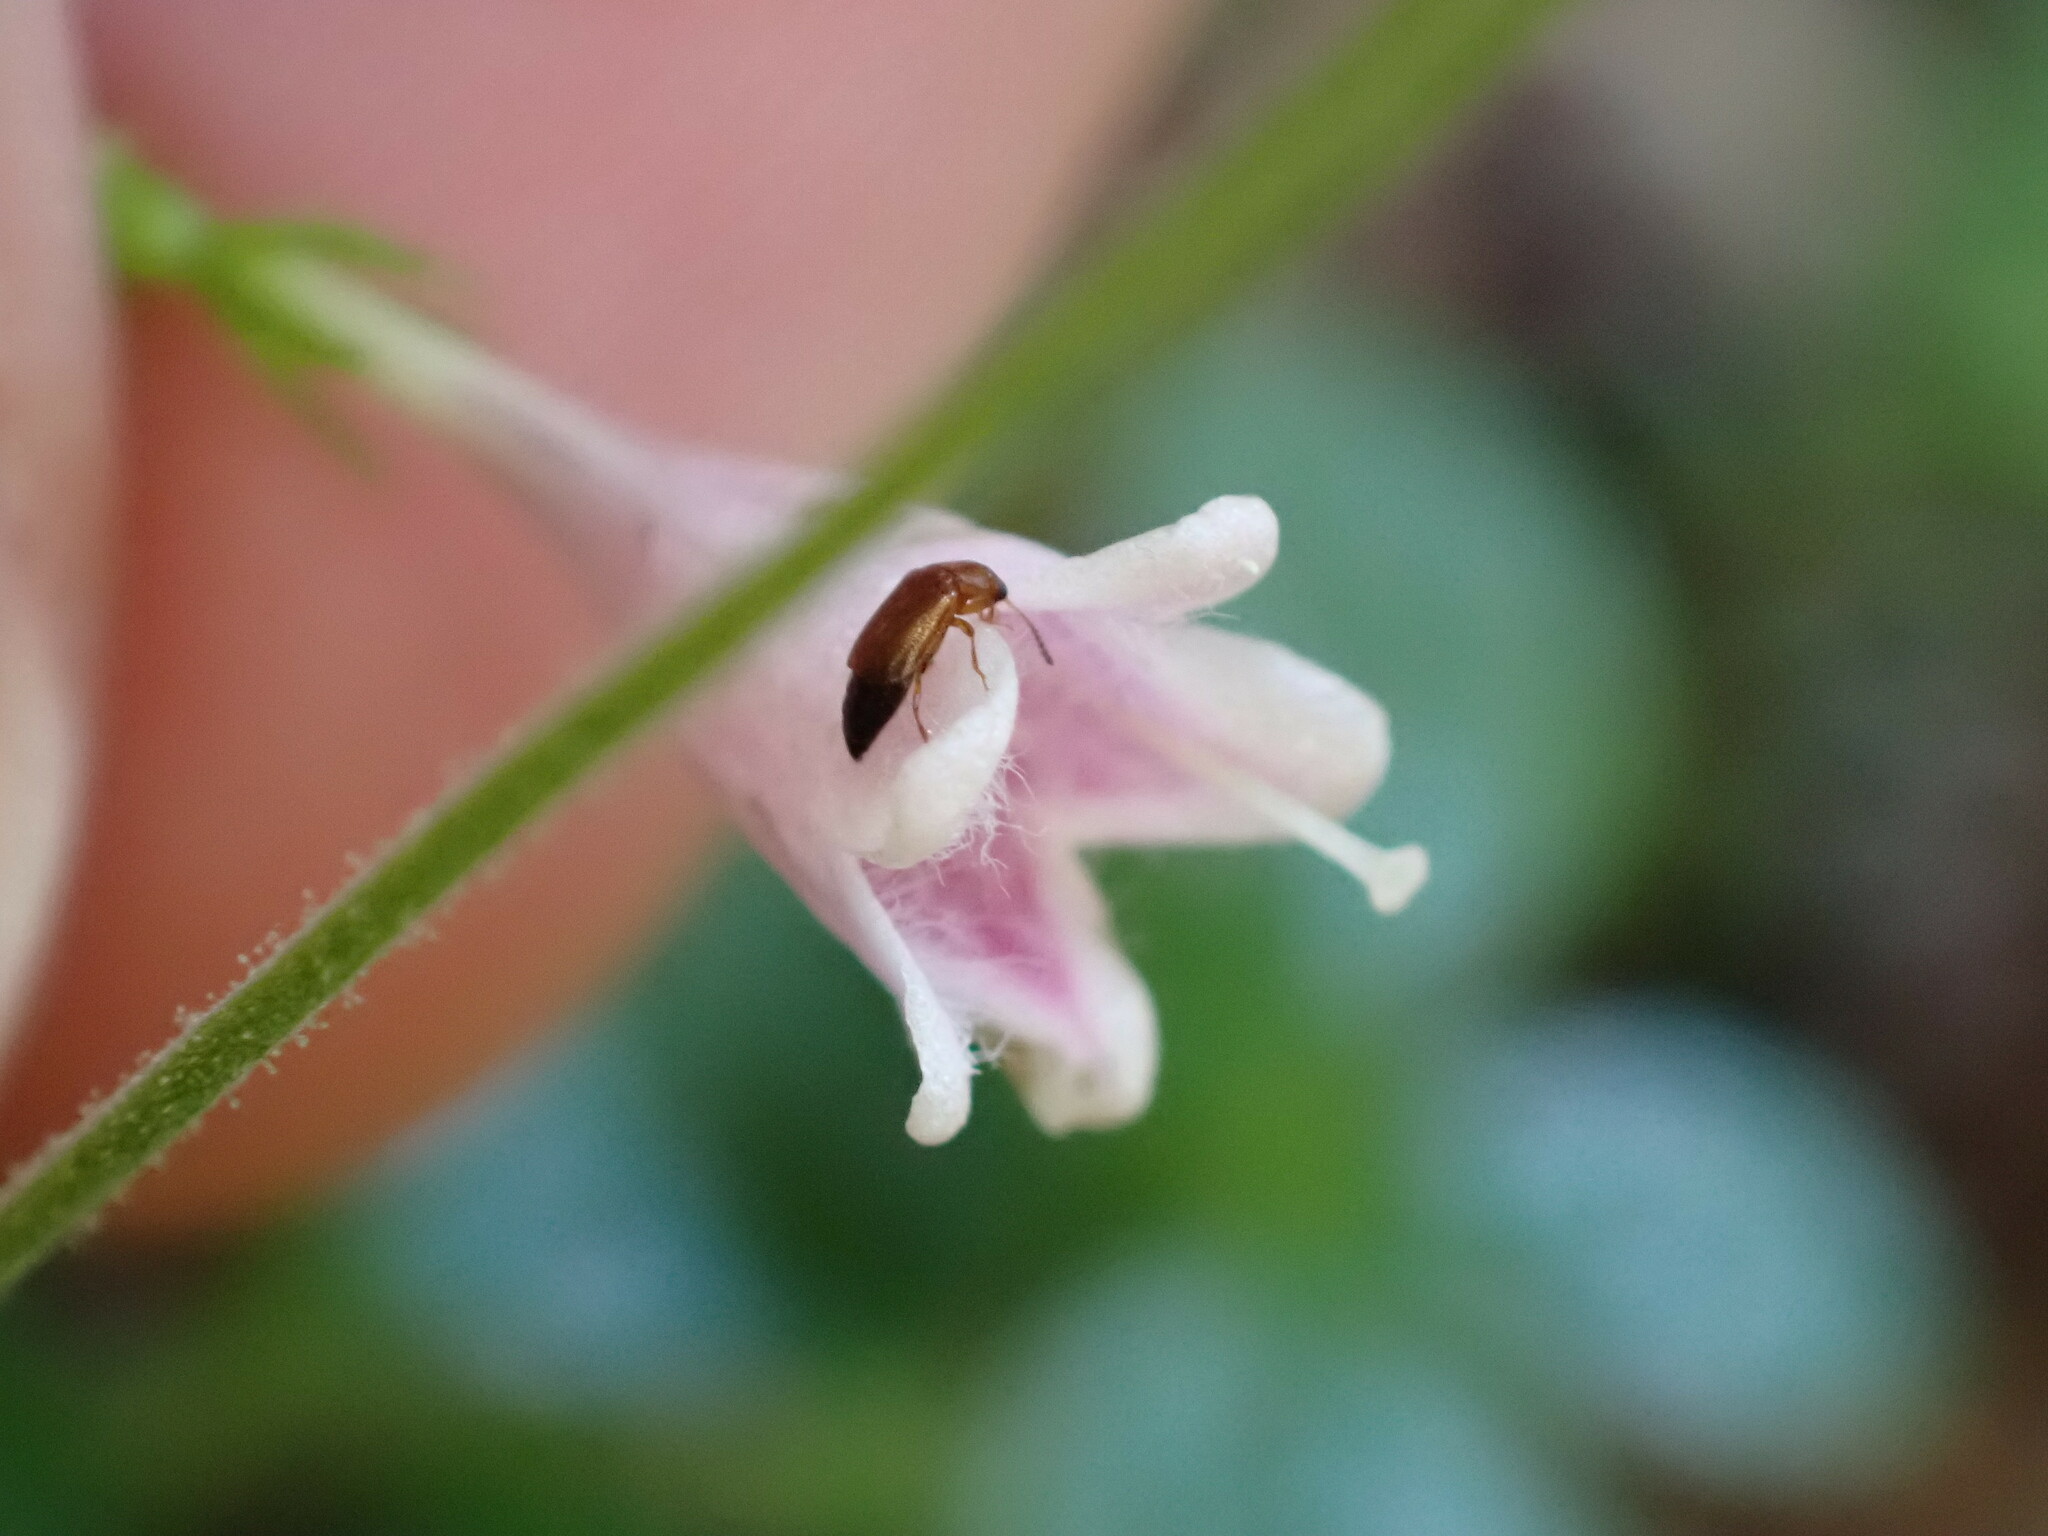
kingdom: Plantae
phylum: Tracheophyta
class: Magnoliopsida
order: Dipsacales
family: Caprifoliaceae
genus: Linnaea
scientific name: Linnaea borealis
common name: Twinflower
